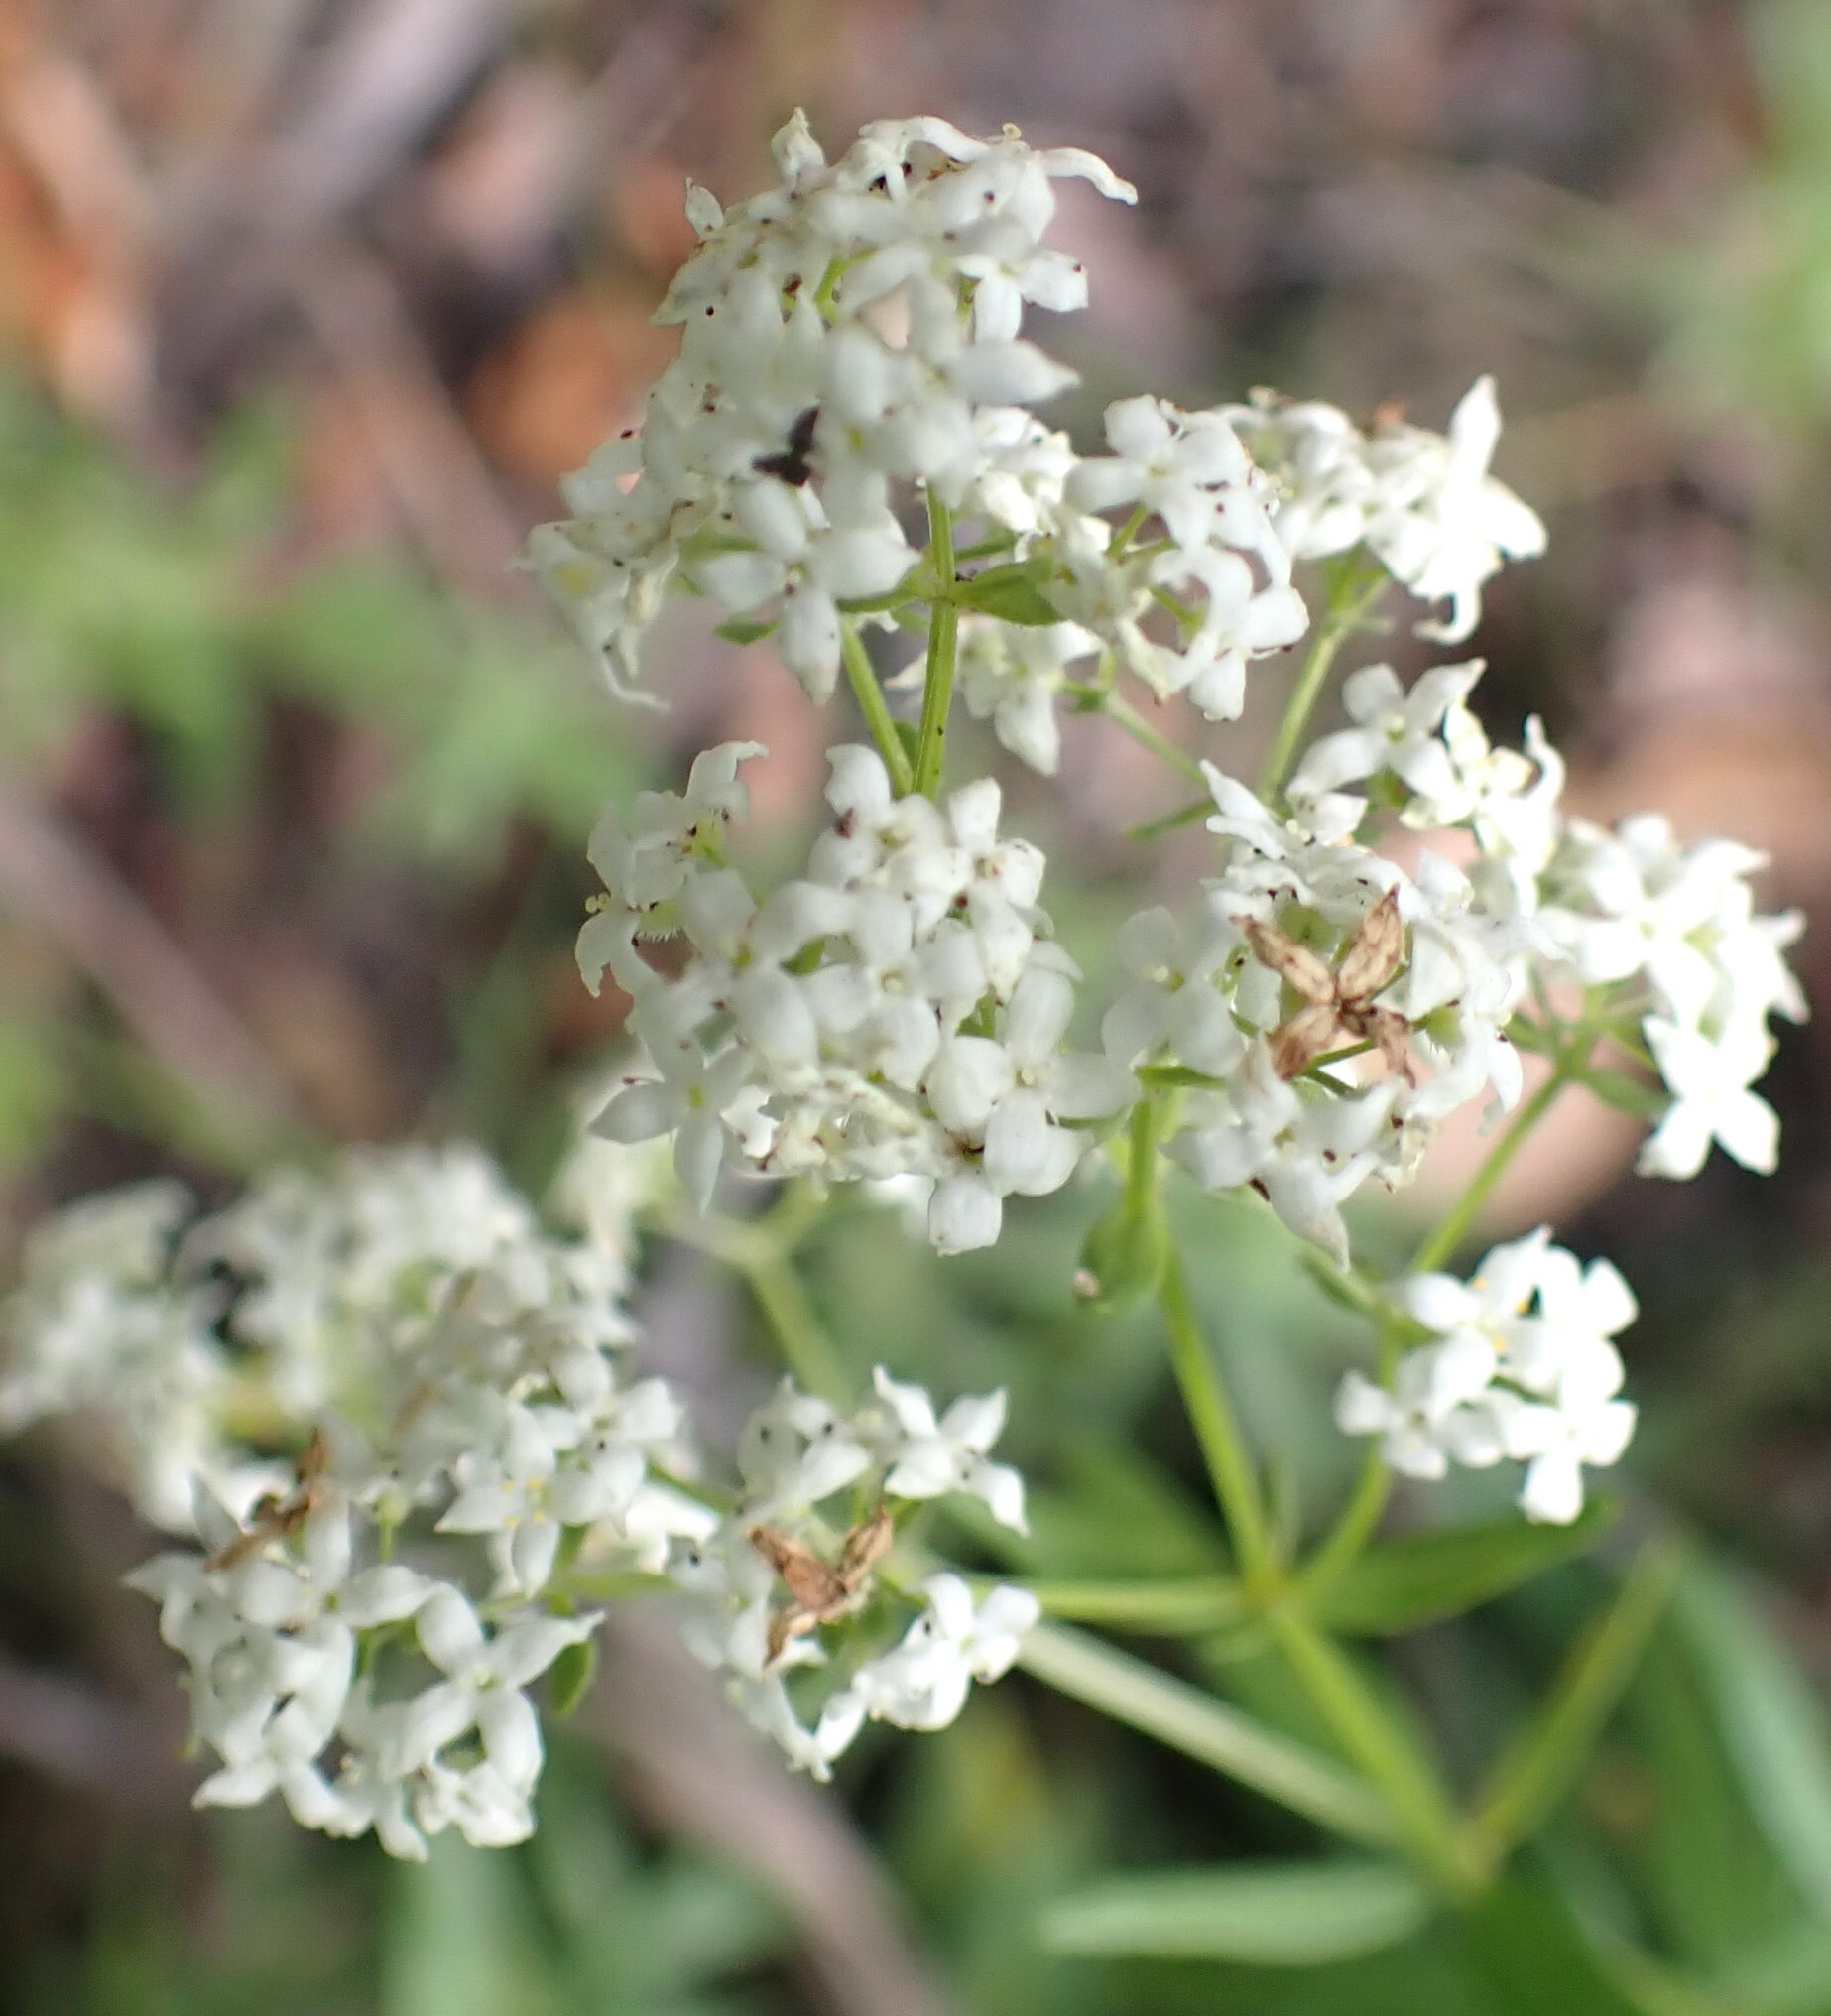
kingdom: Plantae
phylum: Tracheophyta
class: Magnoliopsida
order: Gentianales
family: Rubiaceae
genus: Galium
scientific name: Galium boreale
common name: Northern bedstraw
